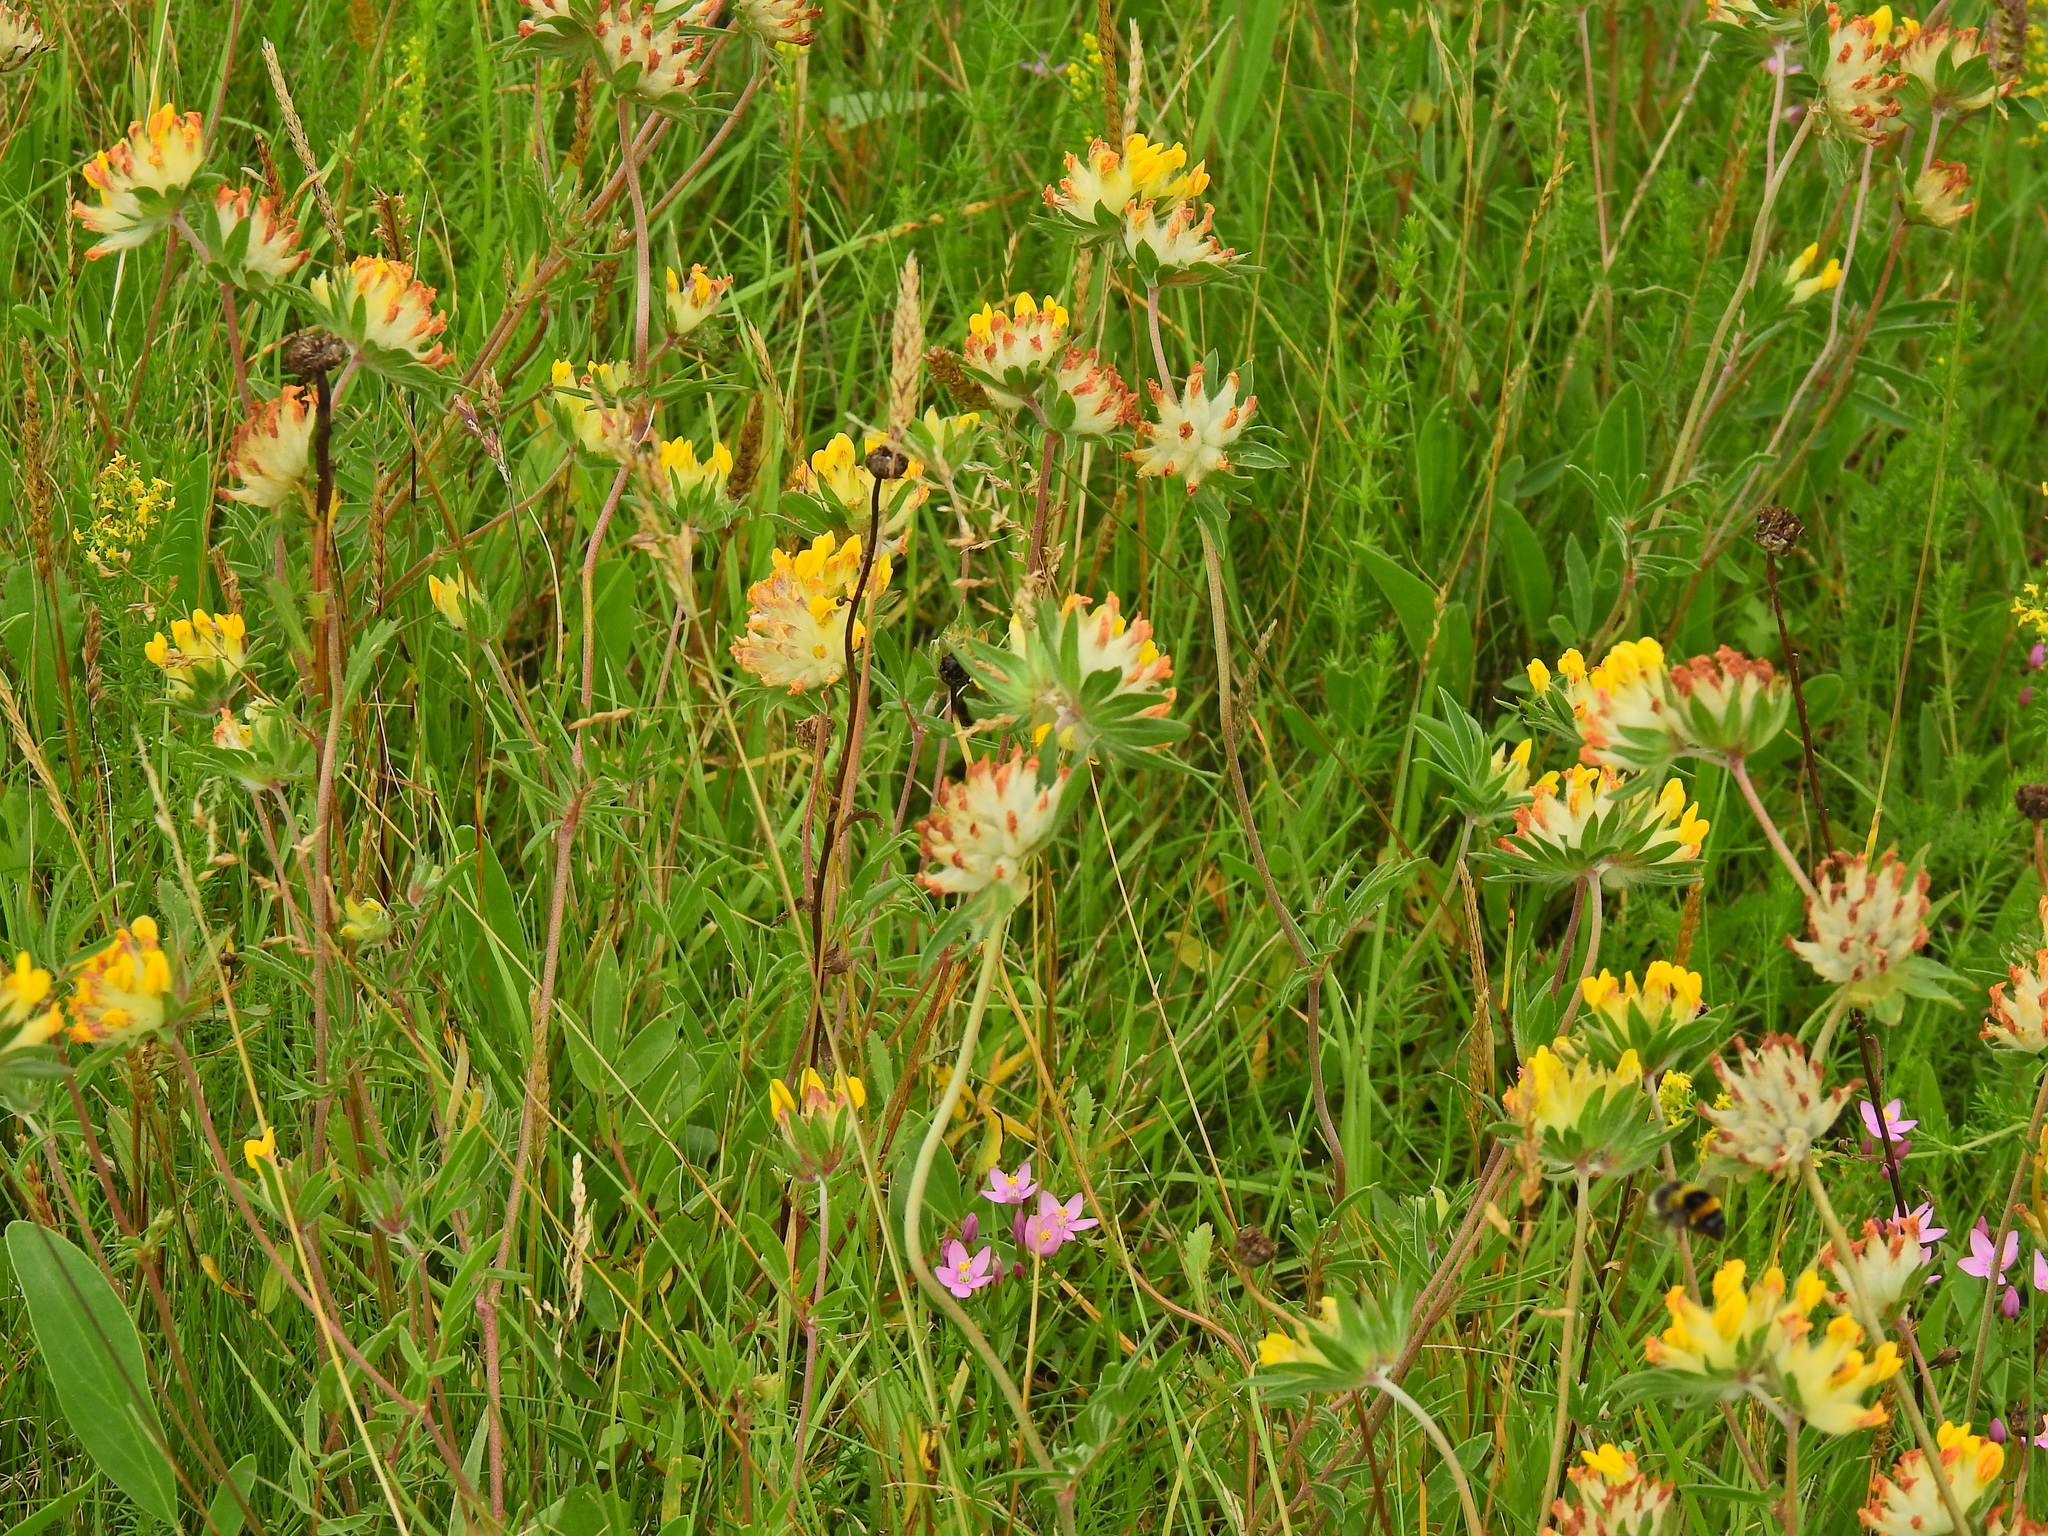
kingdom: Plantae
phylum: Tracheophyta
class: Magnoliopsida
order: Fabales
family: Fabaceae
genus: Anthyllis
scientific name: Anthyllis vulneraria
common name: Kidney vetch
